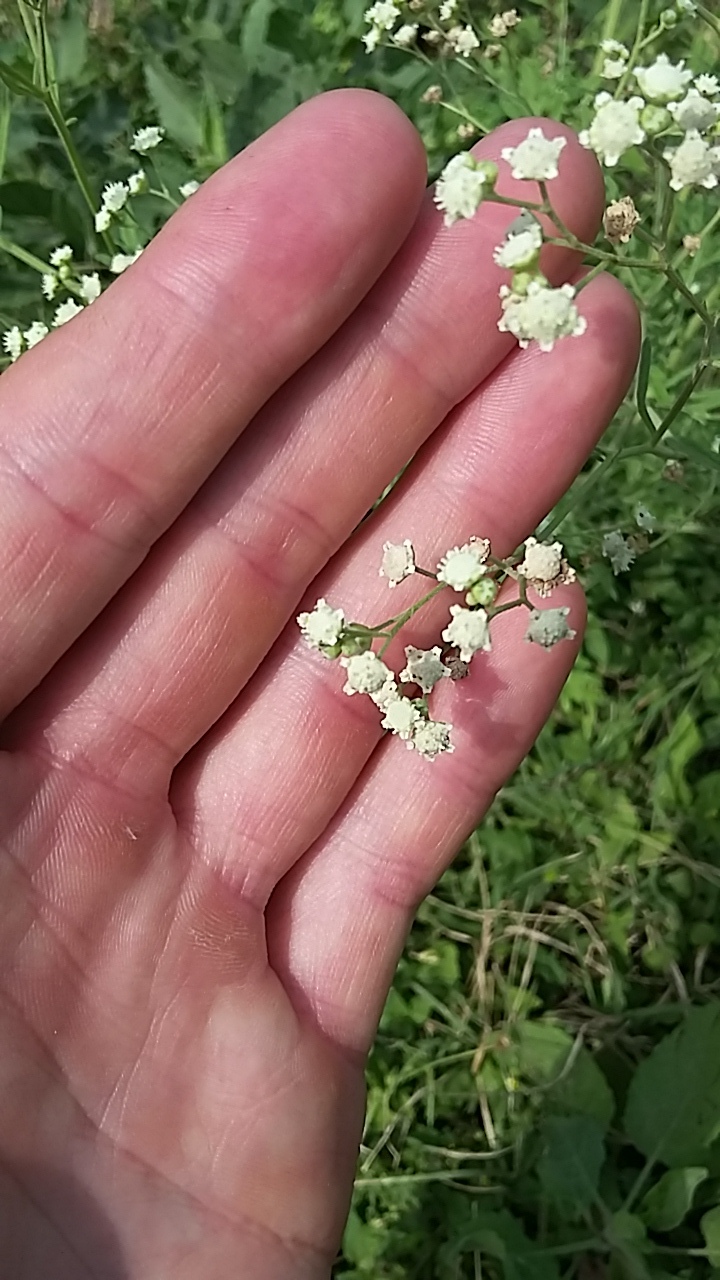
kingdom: Plantae
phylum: Tracheophyta
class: Magnoliopsida
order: Asterales
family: Asteraceae
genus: Parthenium
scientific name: Parthenium hysterophorus
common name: Santa maria feverfew
